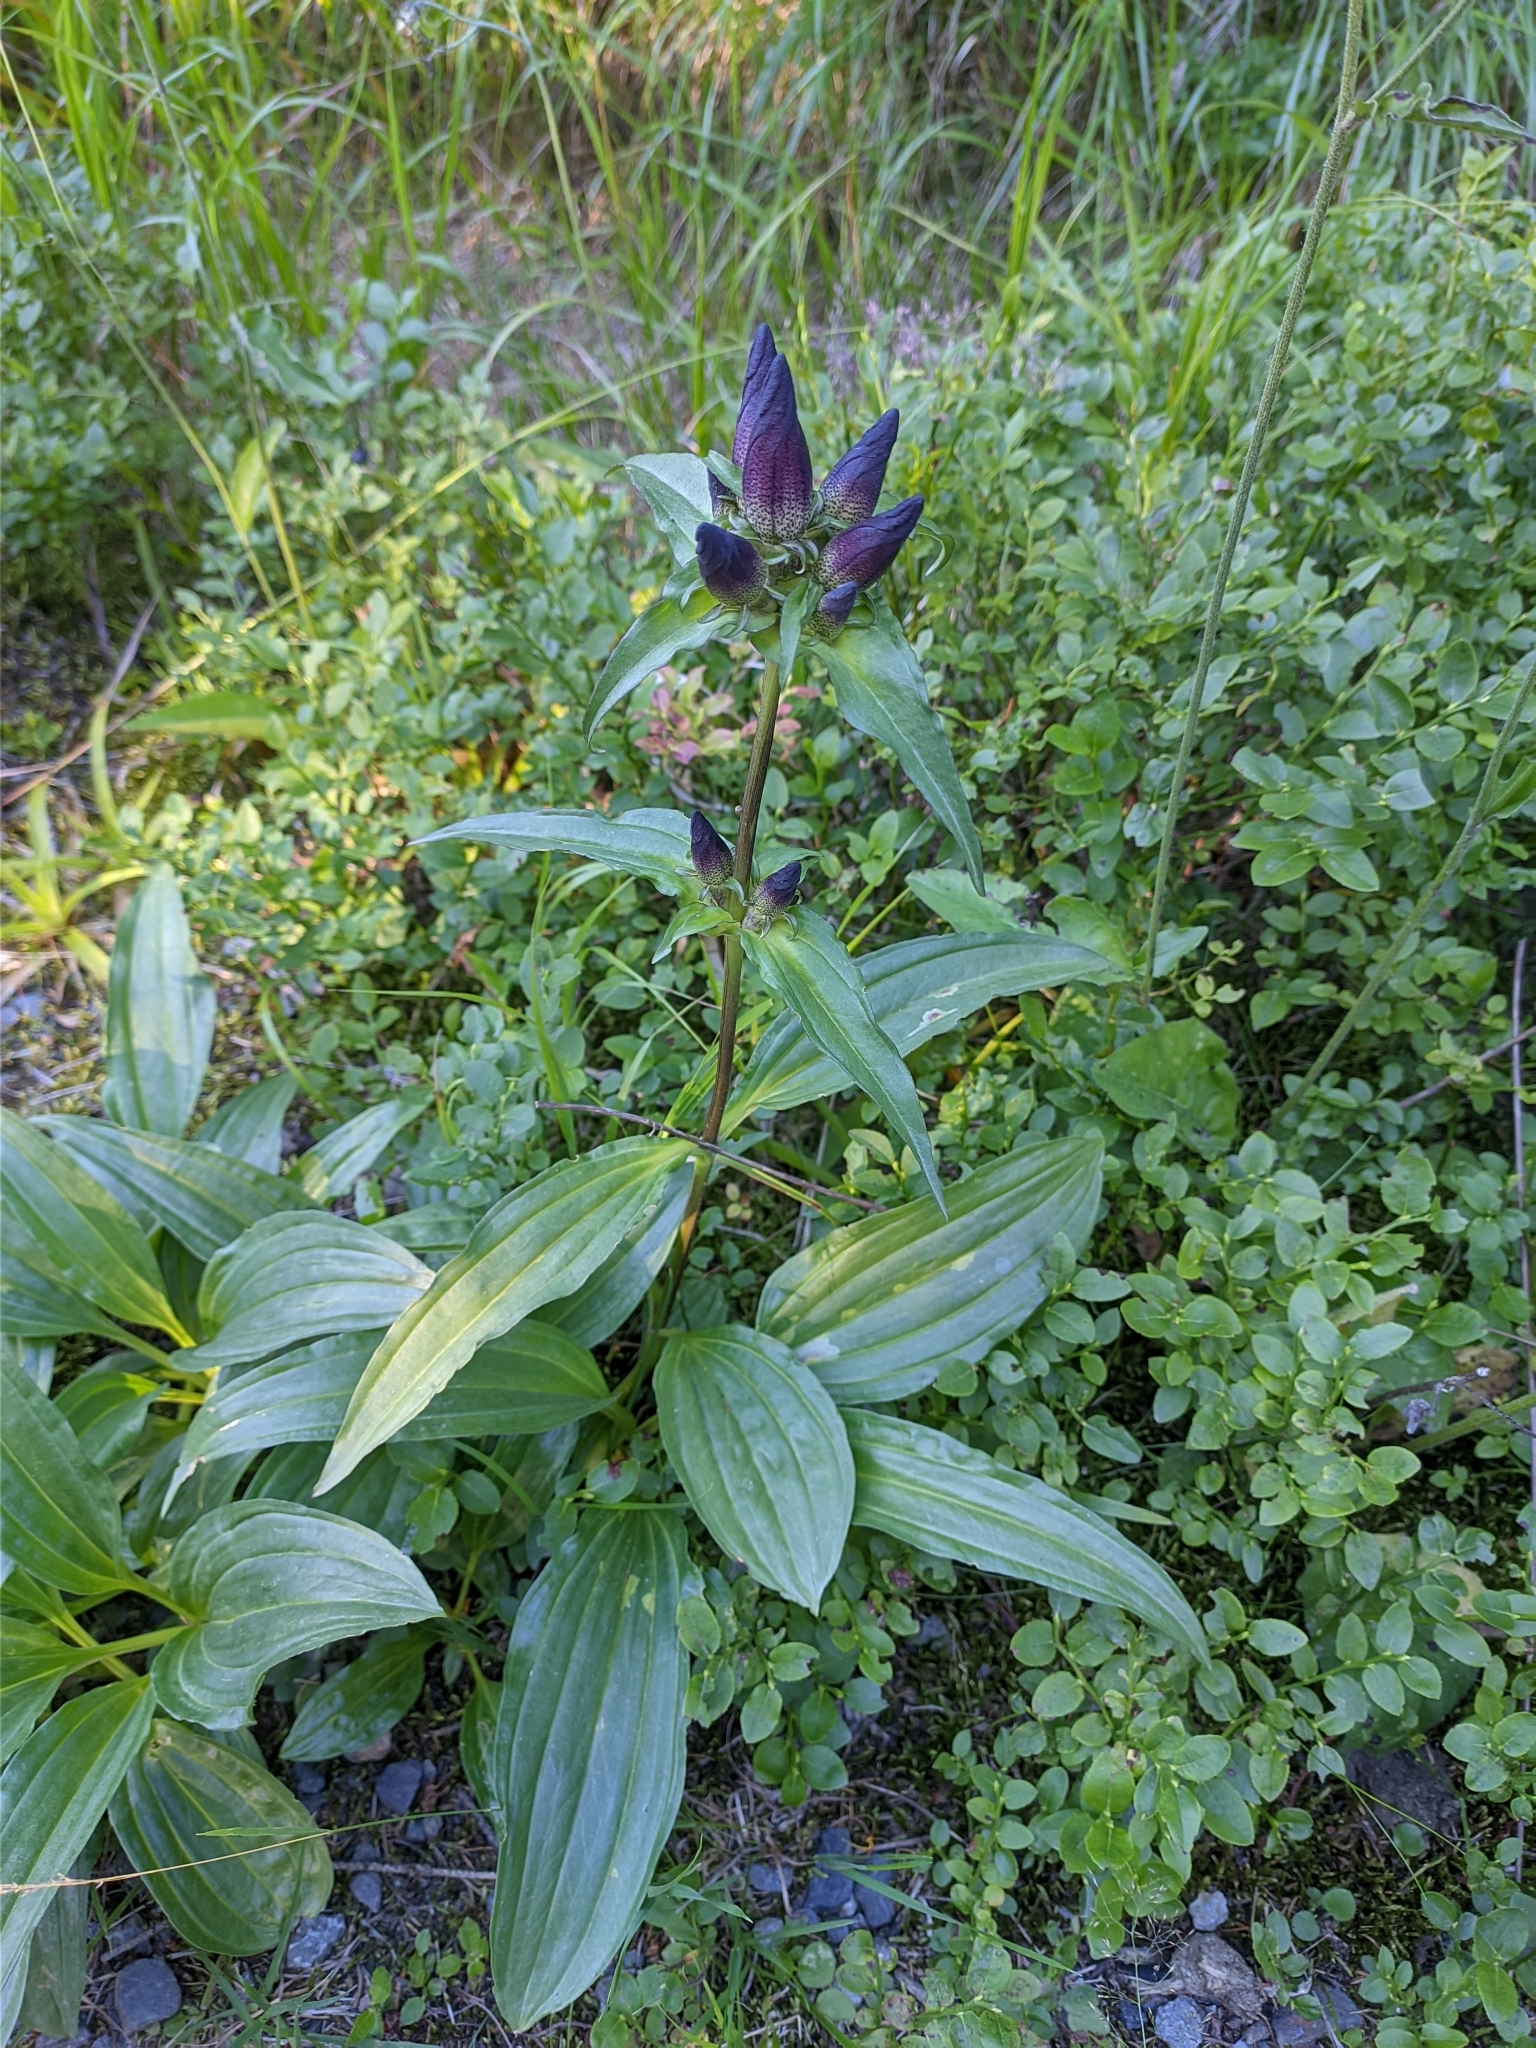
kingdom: Plantae
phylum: Tracheophyta
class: Magnoliopsida
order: Gentianales
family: Gentianaceae
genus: Gentiana
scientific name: Gentiana pannonica
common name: Hungarian gentian
